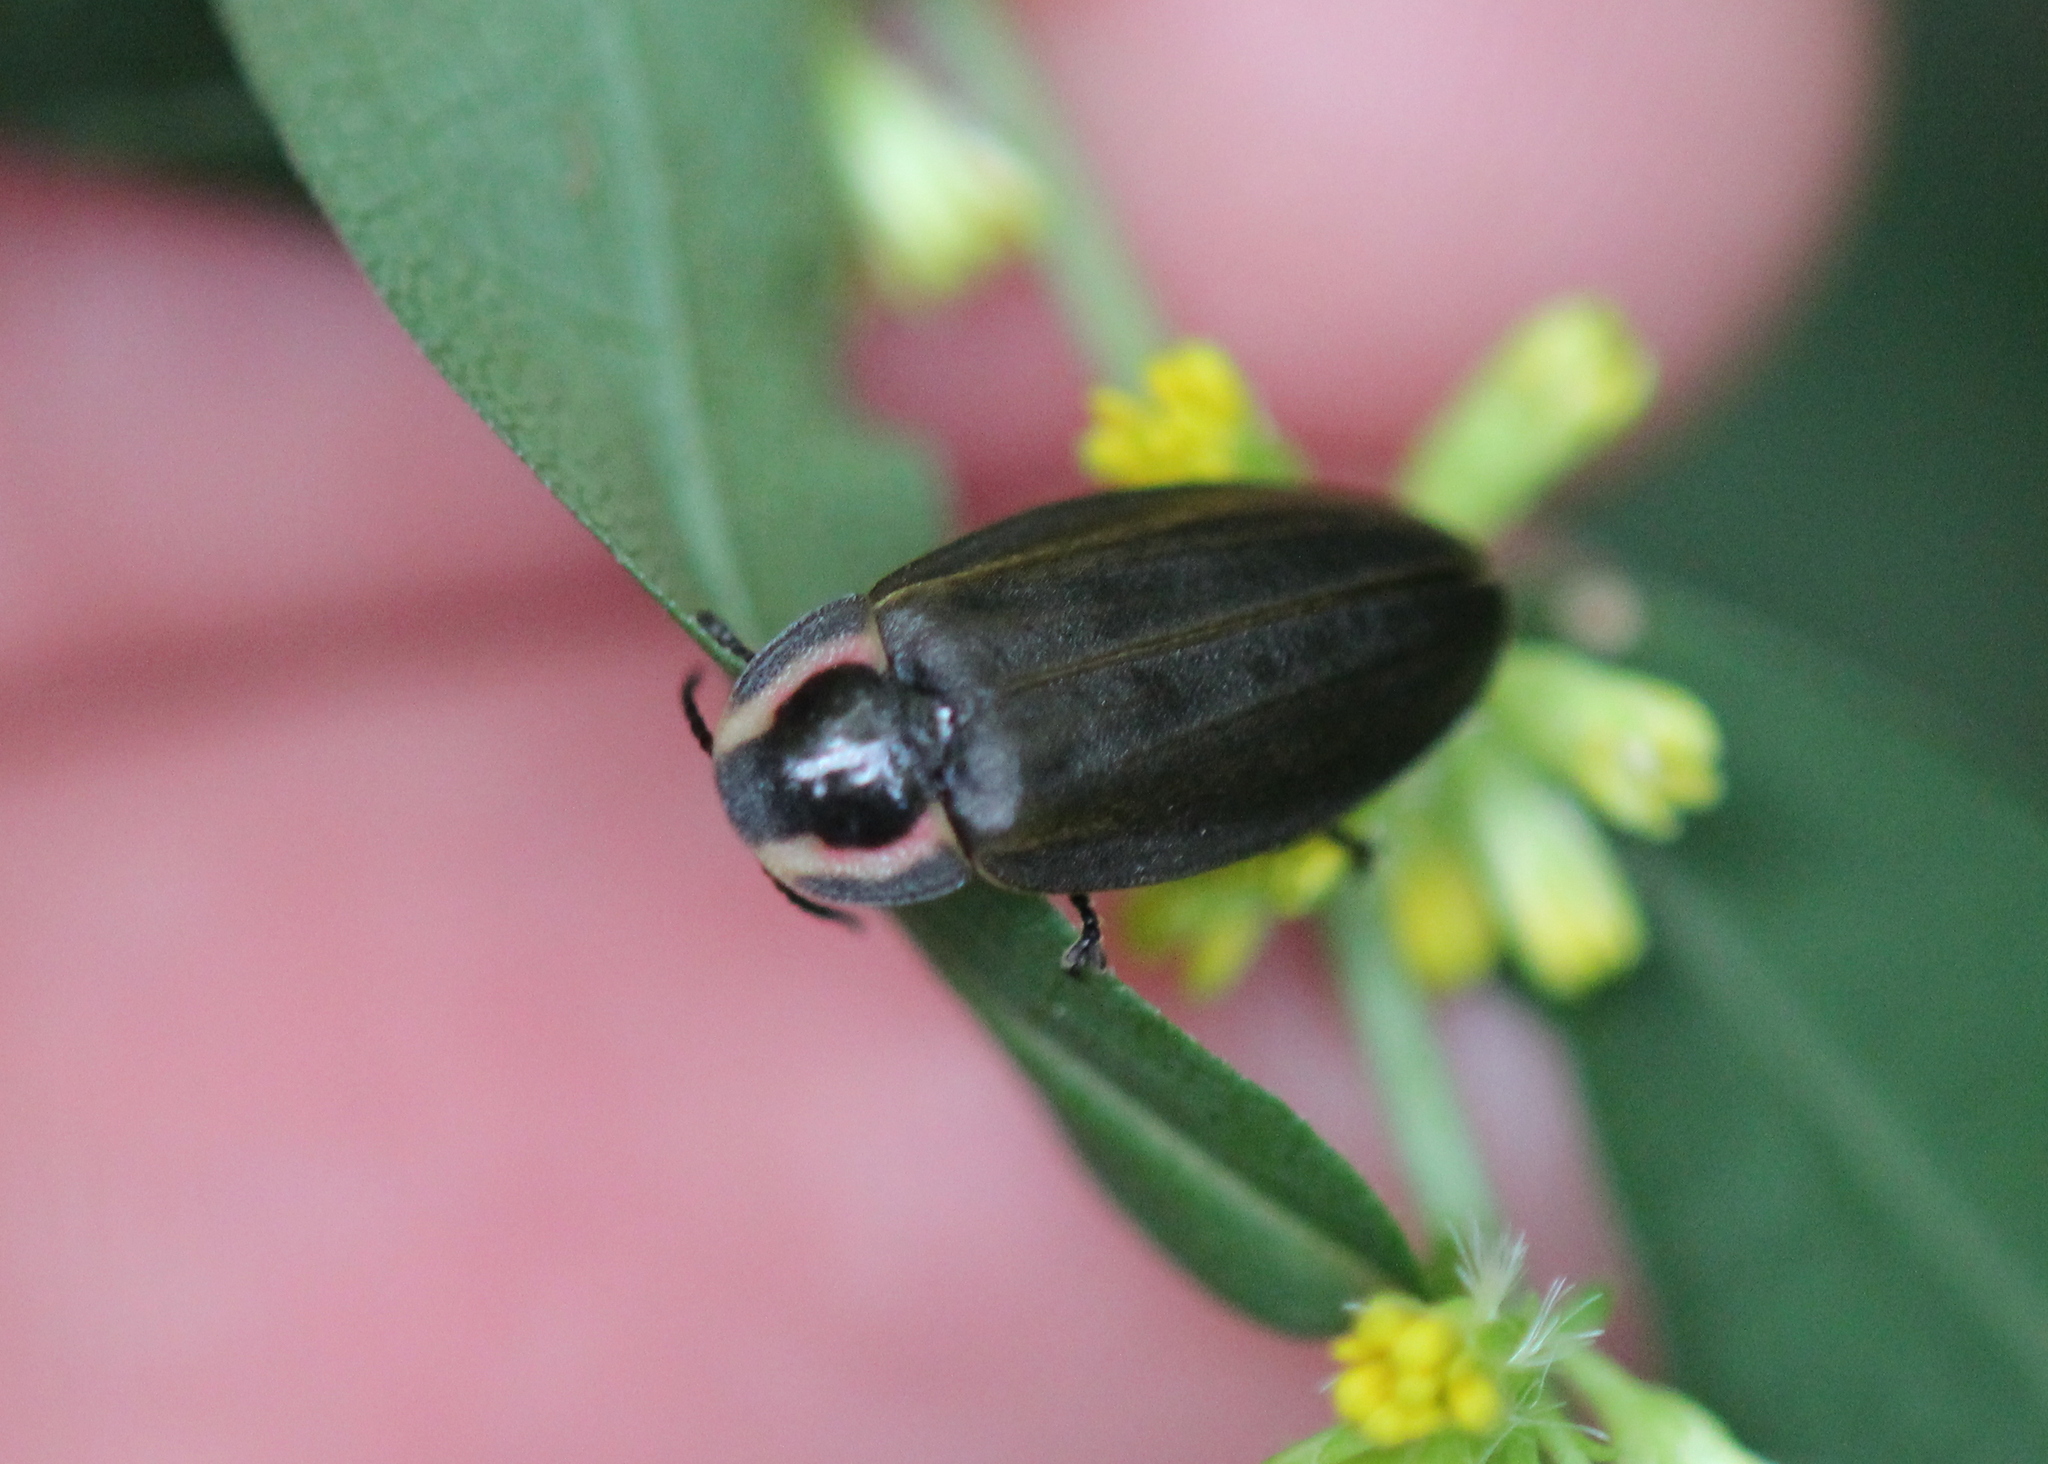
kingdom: Animalia
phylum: Arthropoda
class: Insecta
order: Coleoptera
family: Lampyridae
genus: Photinus
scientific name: Photinus corrusca
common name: Winter firefly
